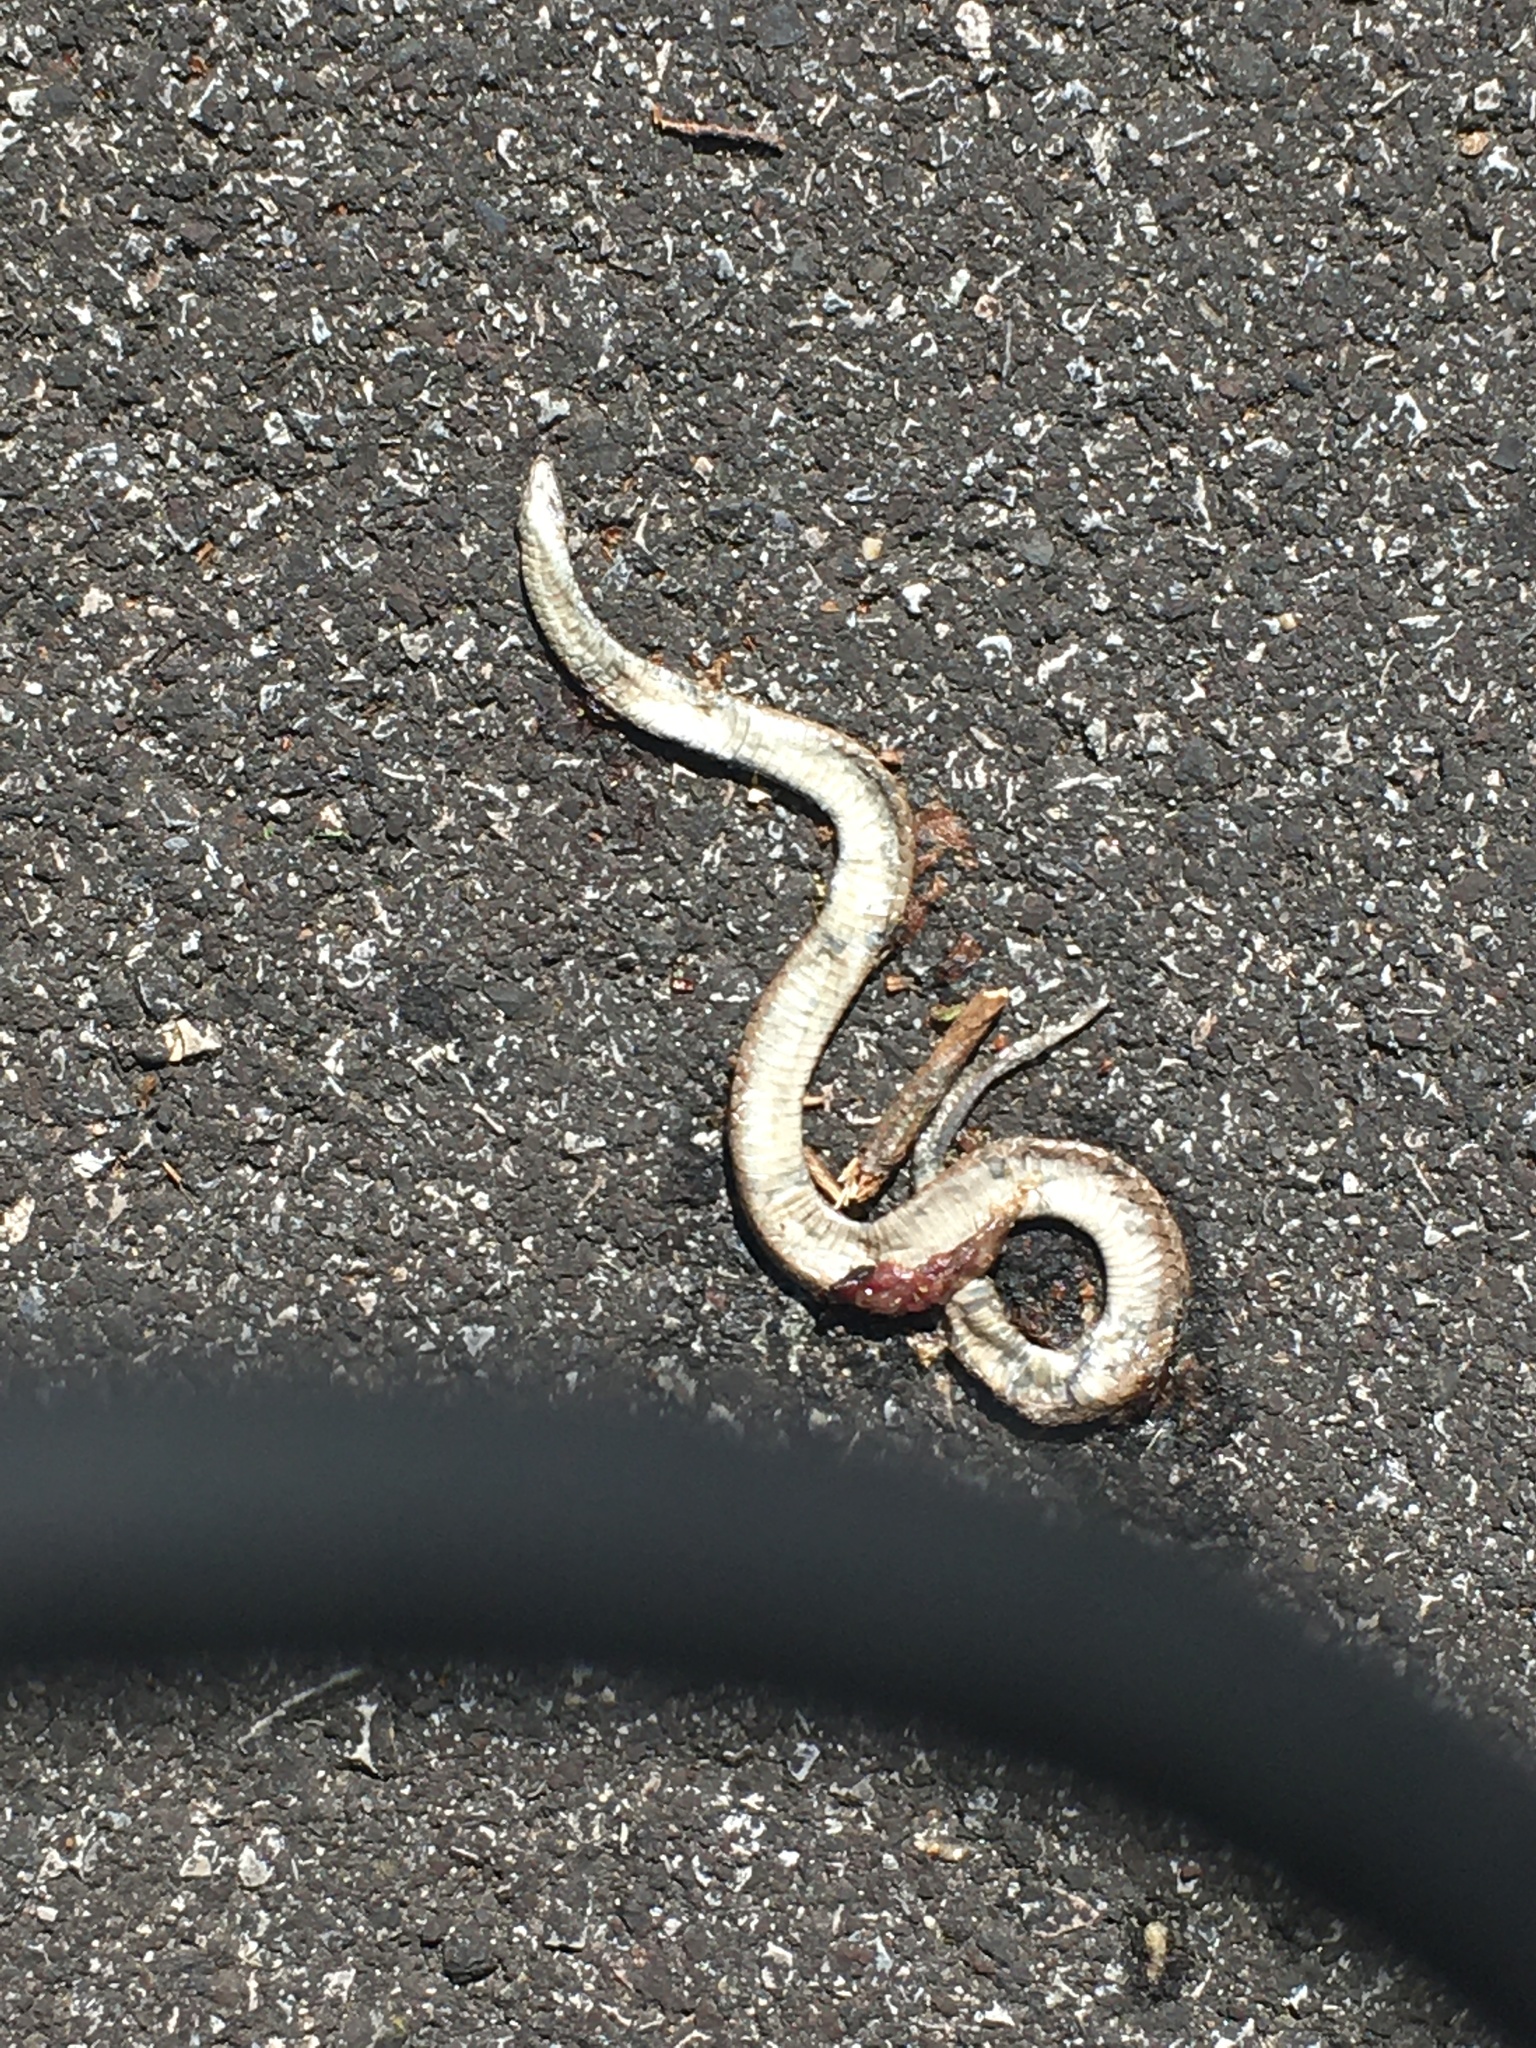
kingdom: Animalia
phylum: Chordata
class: Squamata
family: Colubridae
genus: Storeria
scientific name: Storeria dekayi
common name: (dekay’s) brown snake
